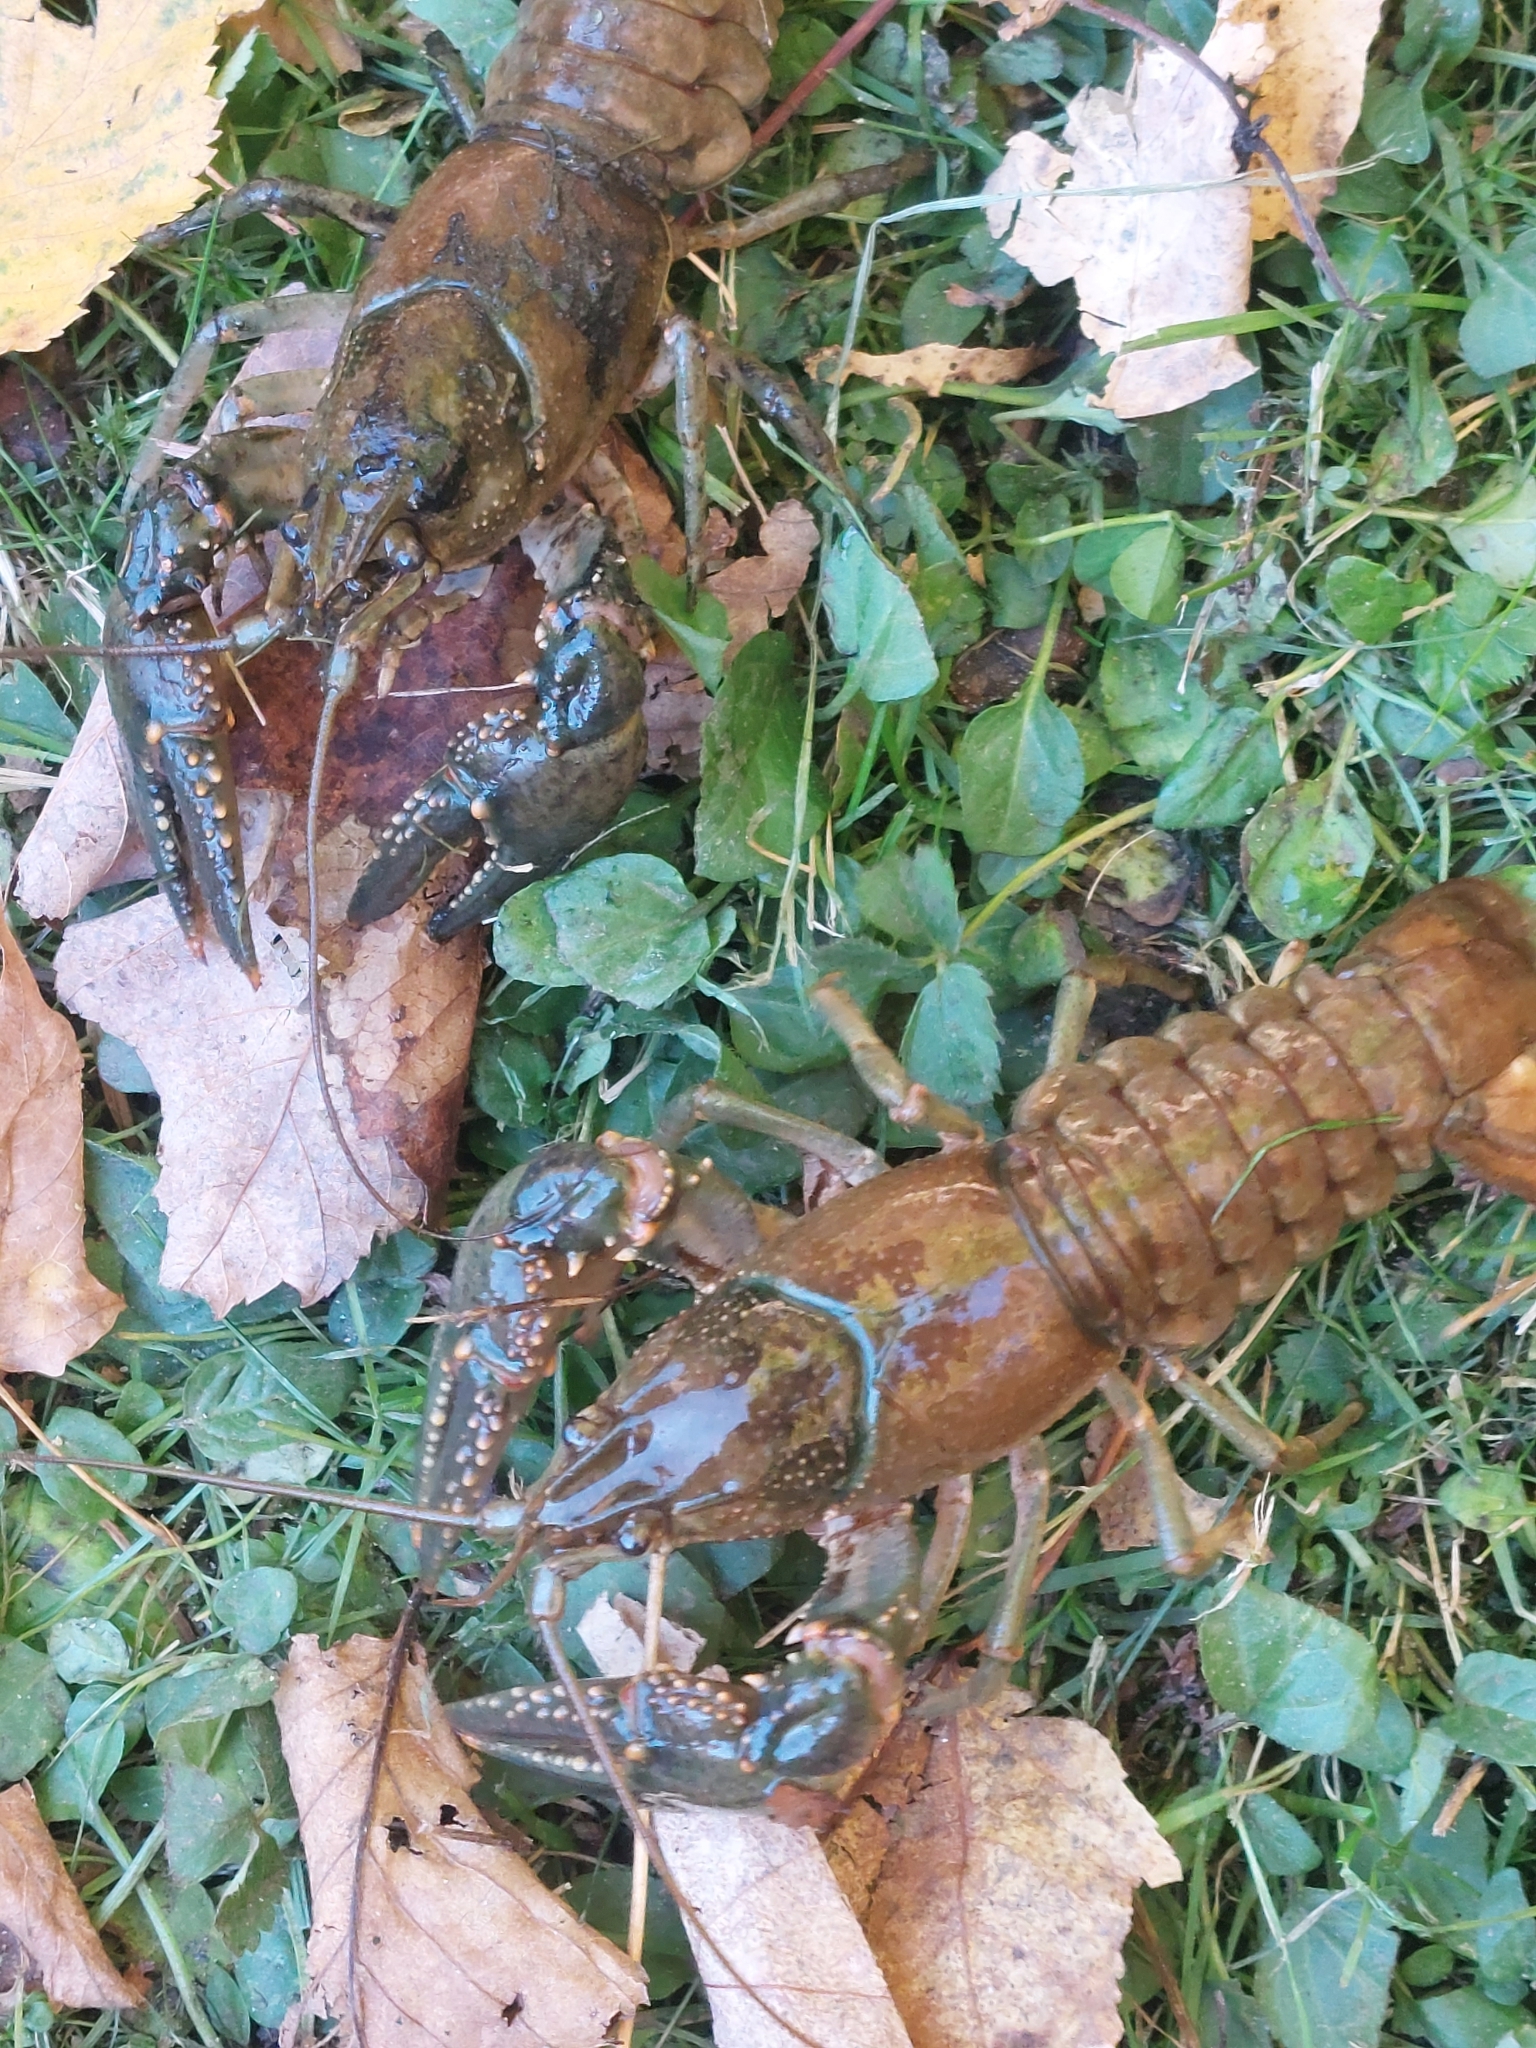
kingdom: Animalia
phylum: Arthropoda
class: Malacostraca
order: Decapoda
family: Cambaridae
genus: Faxonius
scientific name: Faxonius virilis
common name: Virile crayfish
